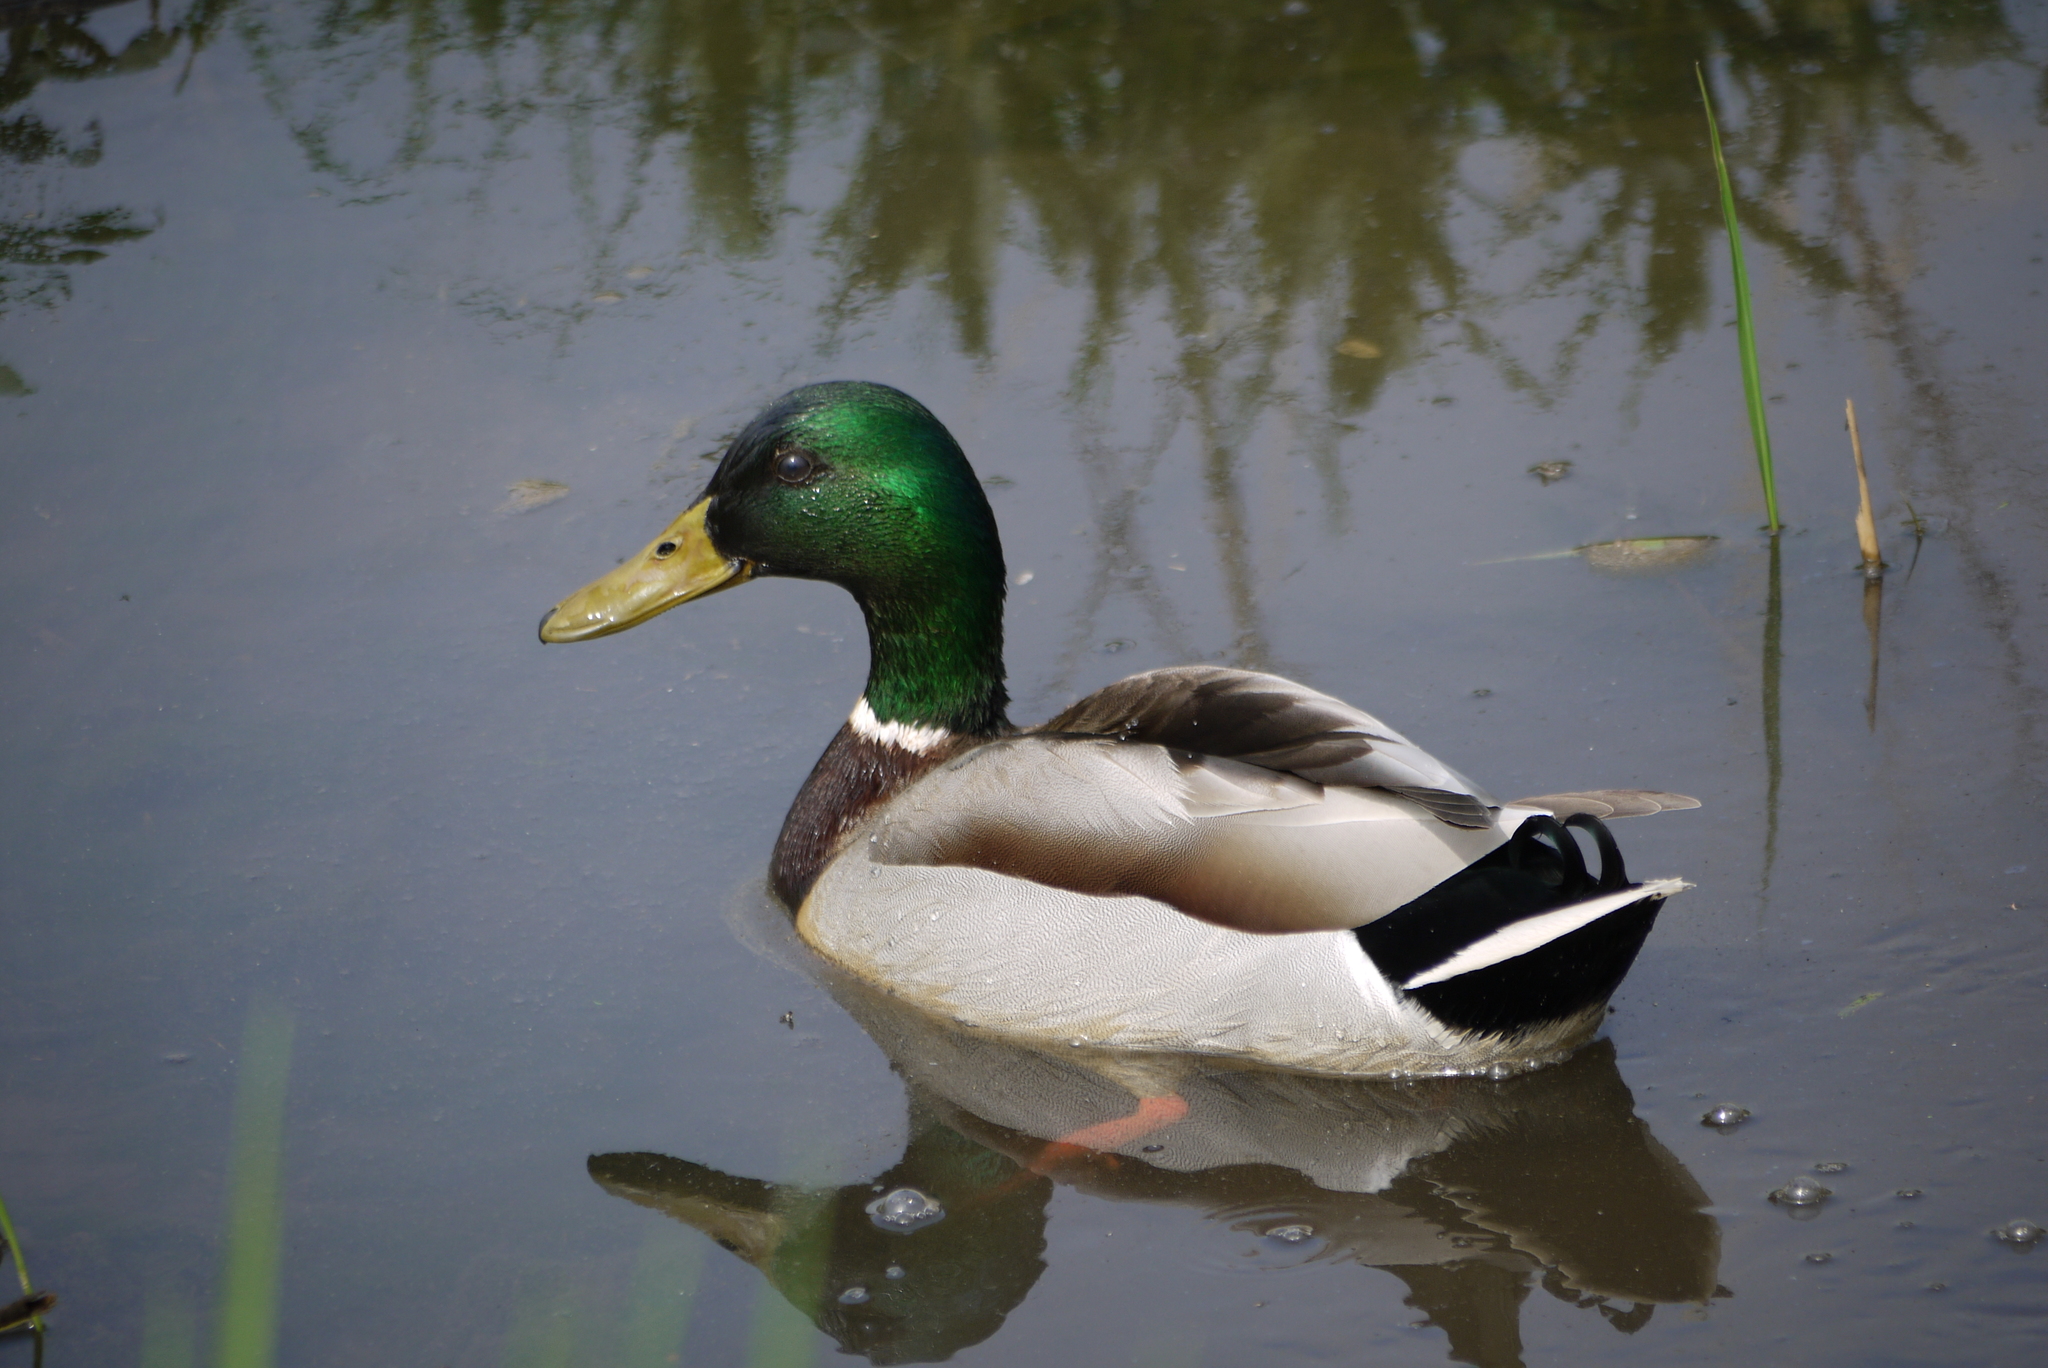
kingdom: Animalia
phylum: Chordata
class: Aves
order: Anseriformes
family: Anatidae
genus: Anas
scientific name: Anas platyrhynchos
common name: Mallard
